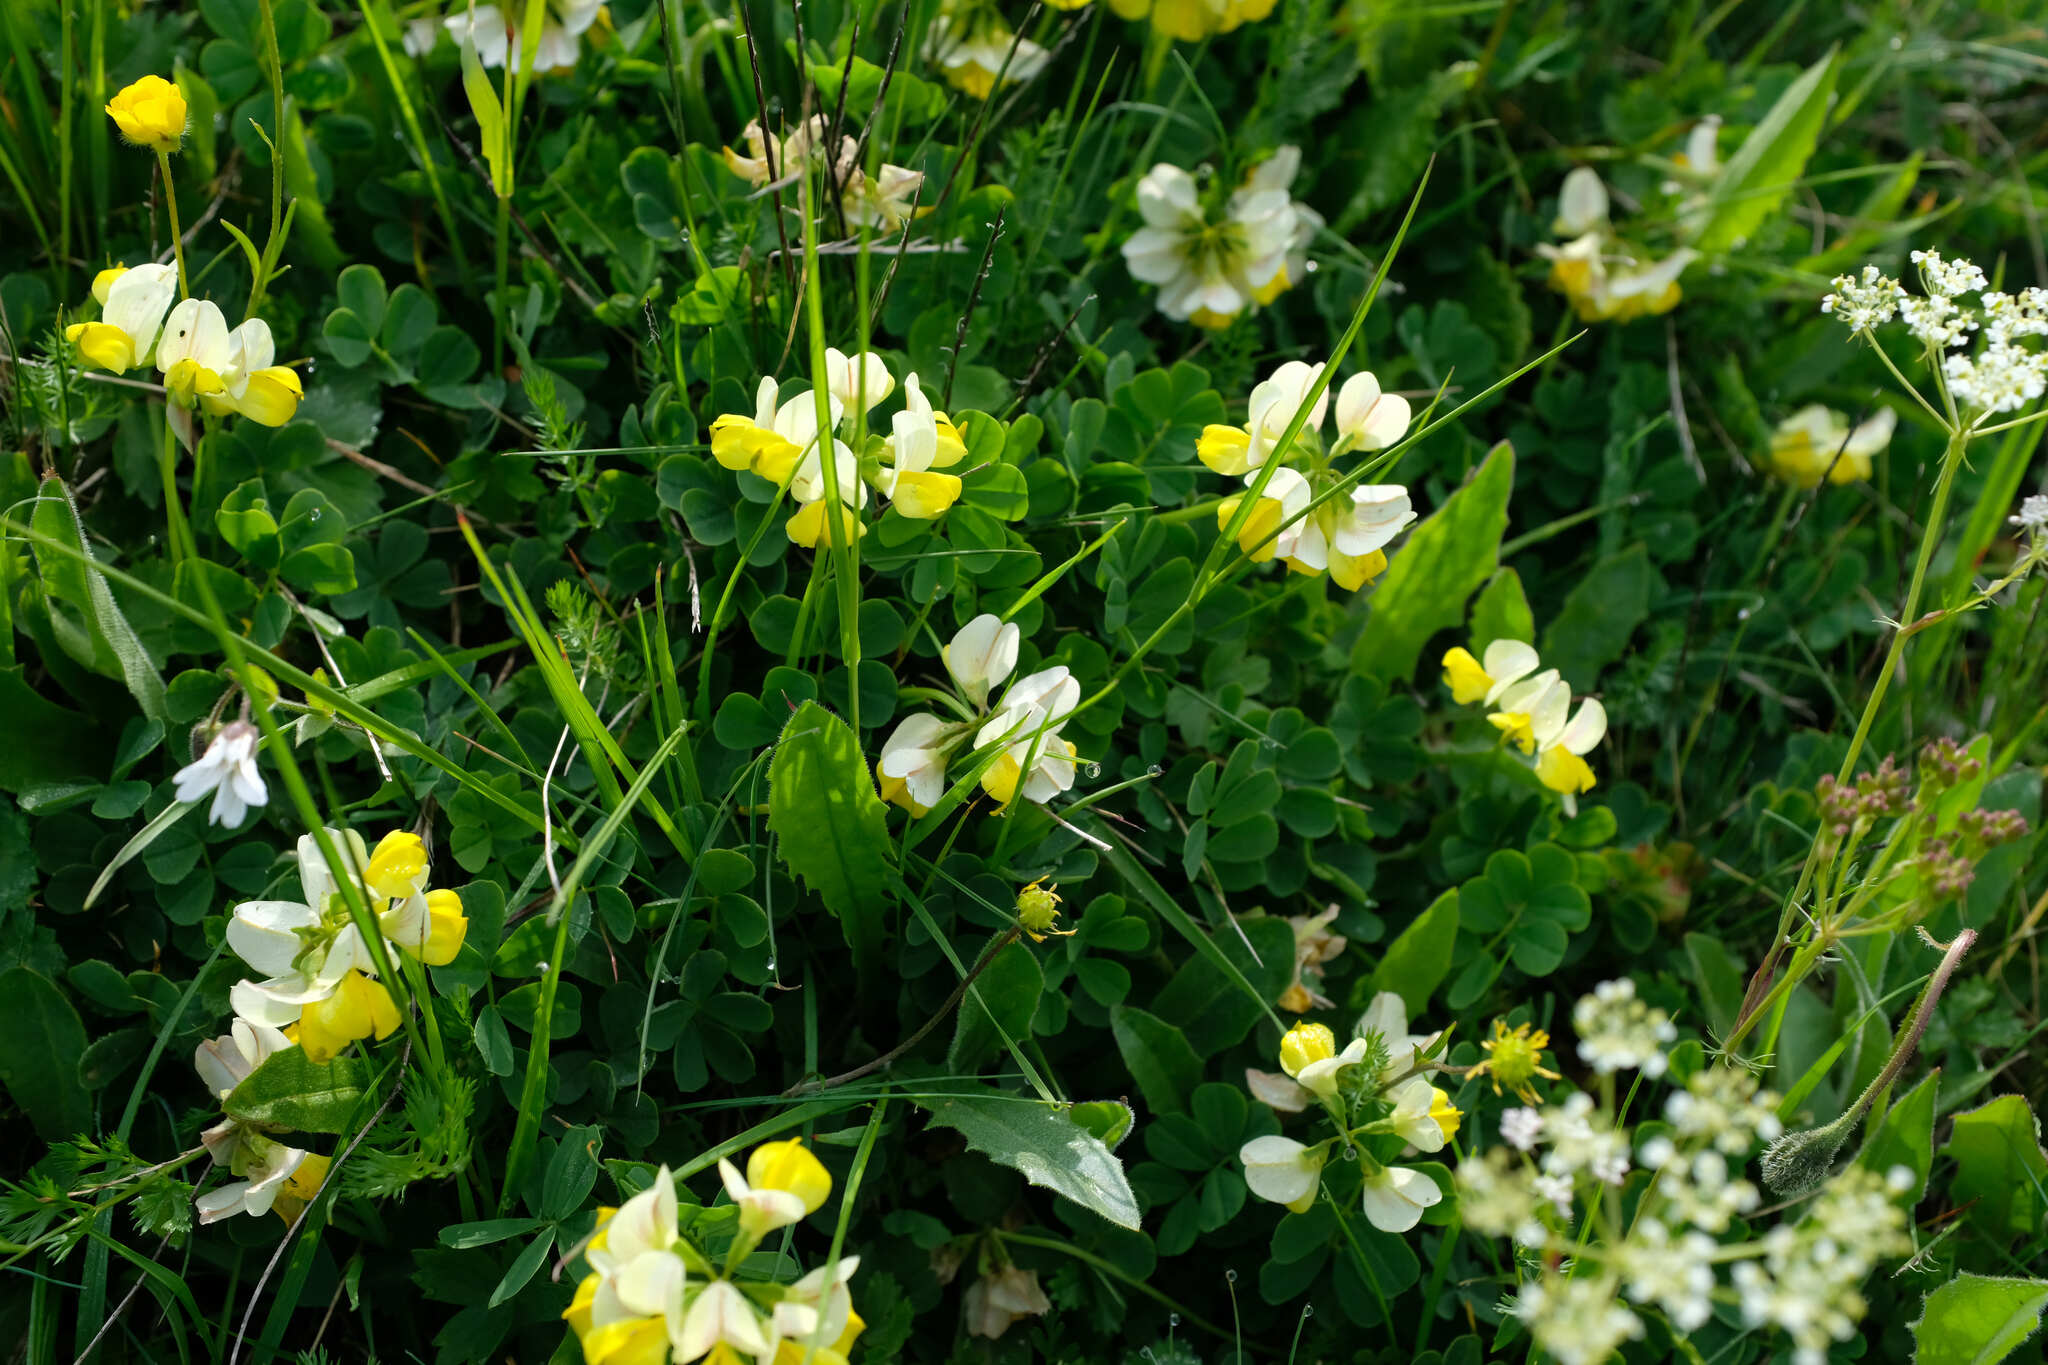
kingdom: Plantae
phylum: Tracheophyta
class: Magnoliopsida
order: Fabales
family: Fabaceae
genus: Coronilla
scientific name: Coronilla orientalis
